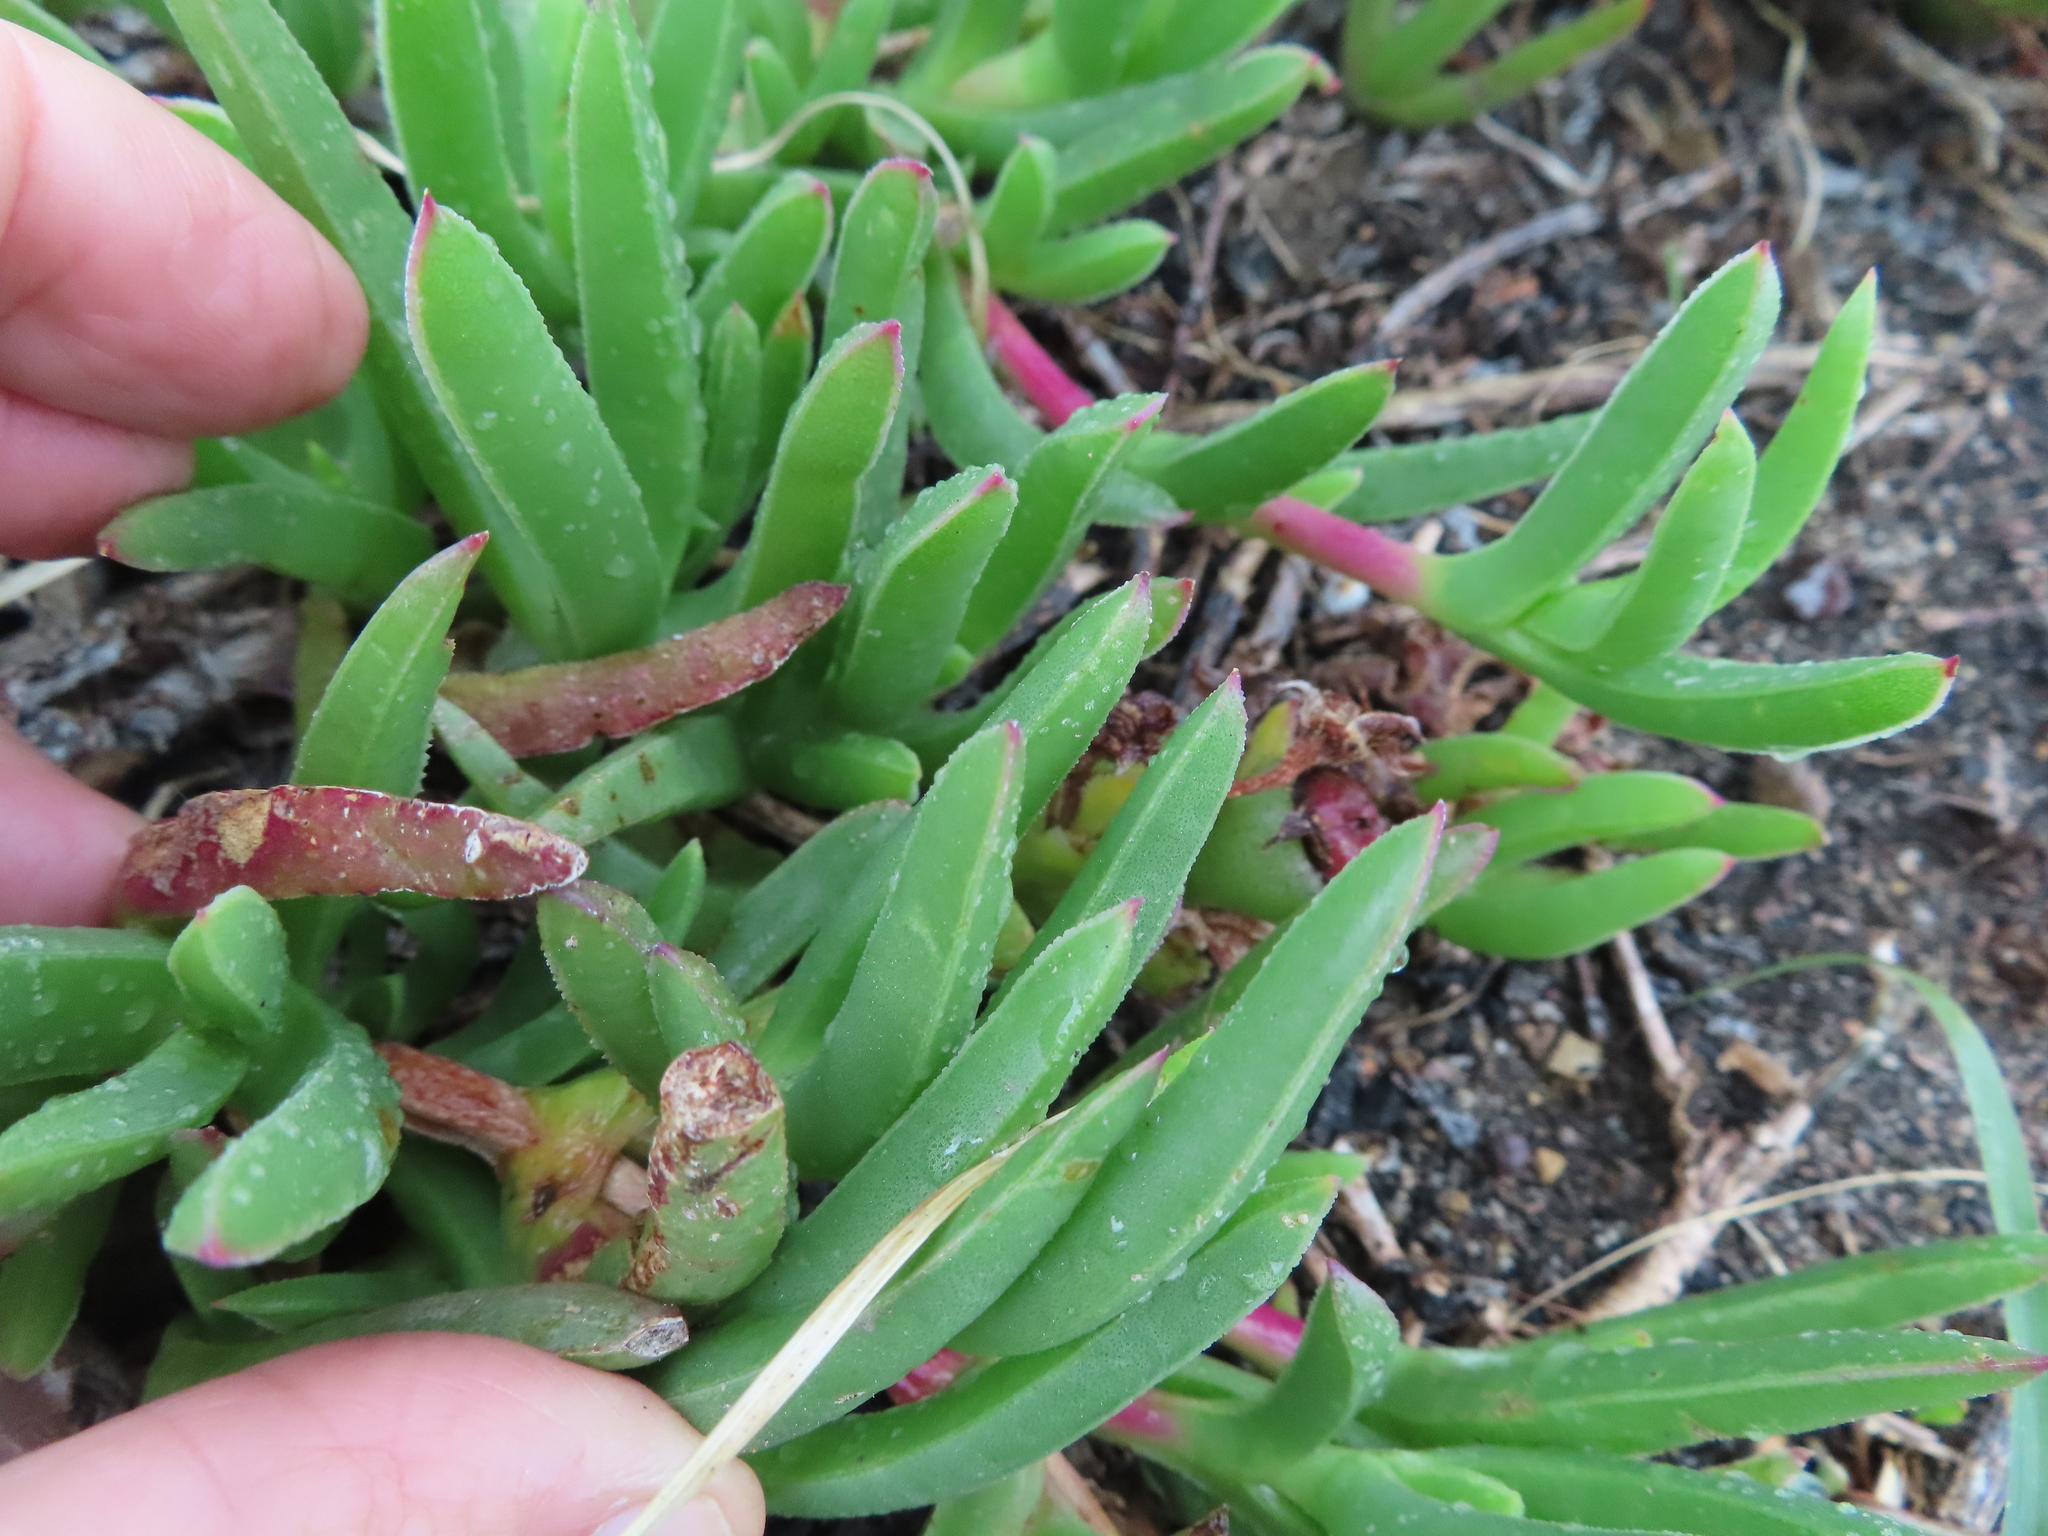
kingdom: Plantae
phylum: Tracheophyta
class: Magnoliopsida
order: Caryophyllales
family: Aizoaceae
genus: Ruschia
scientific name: Ruschia schollii
